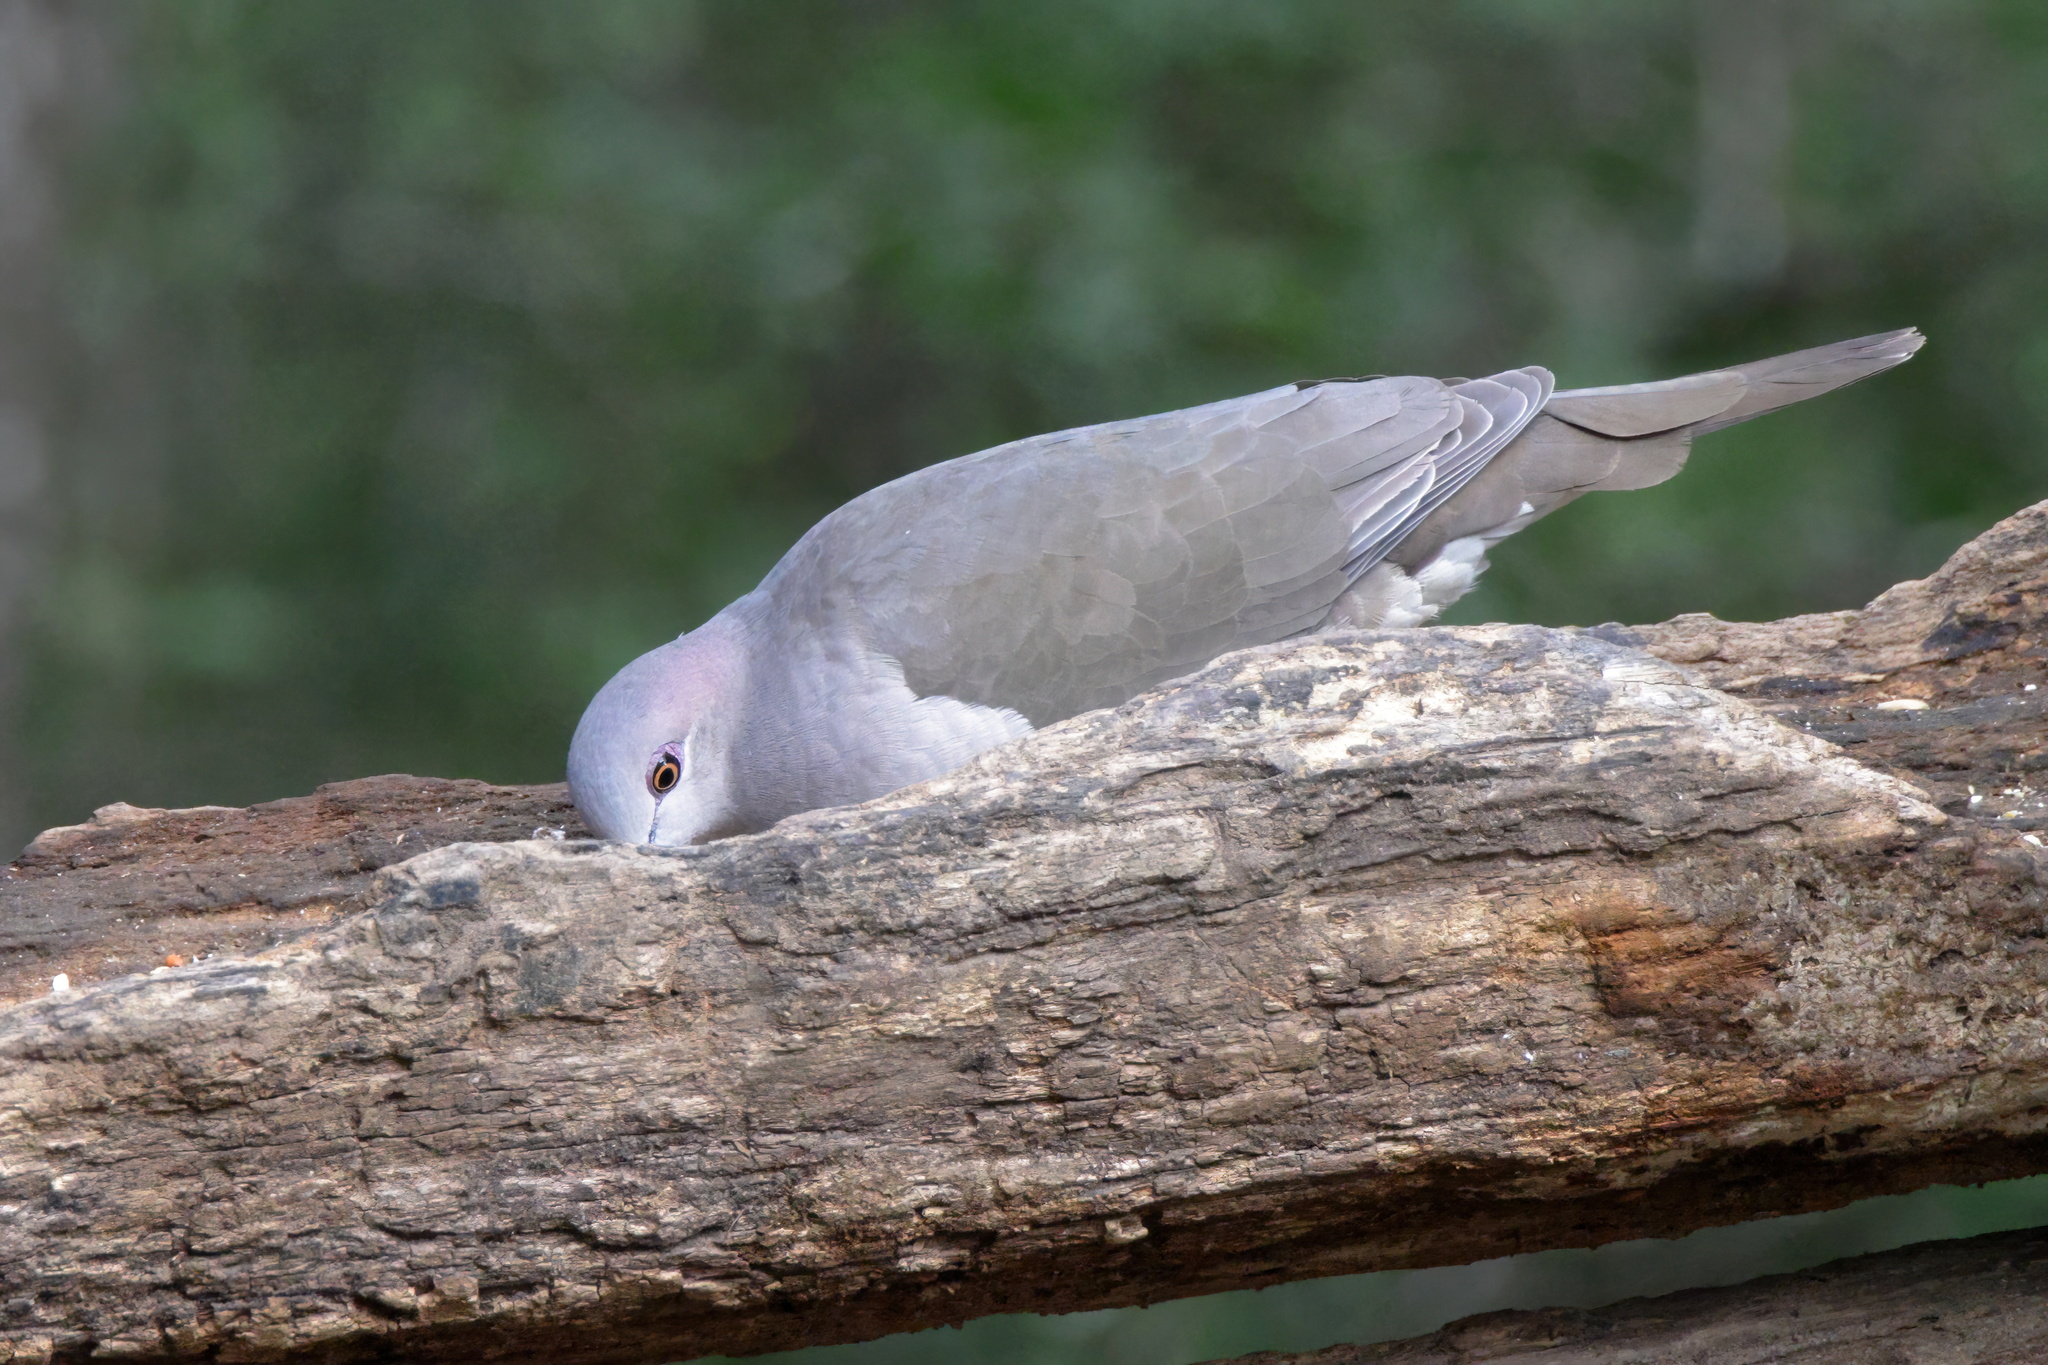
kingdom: Animalia
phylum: Chordata
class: Aves
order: Columbiformes
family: Columbidae
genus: Leptotila
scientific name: Leptotila verreauxi
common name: White-tipped dove
